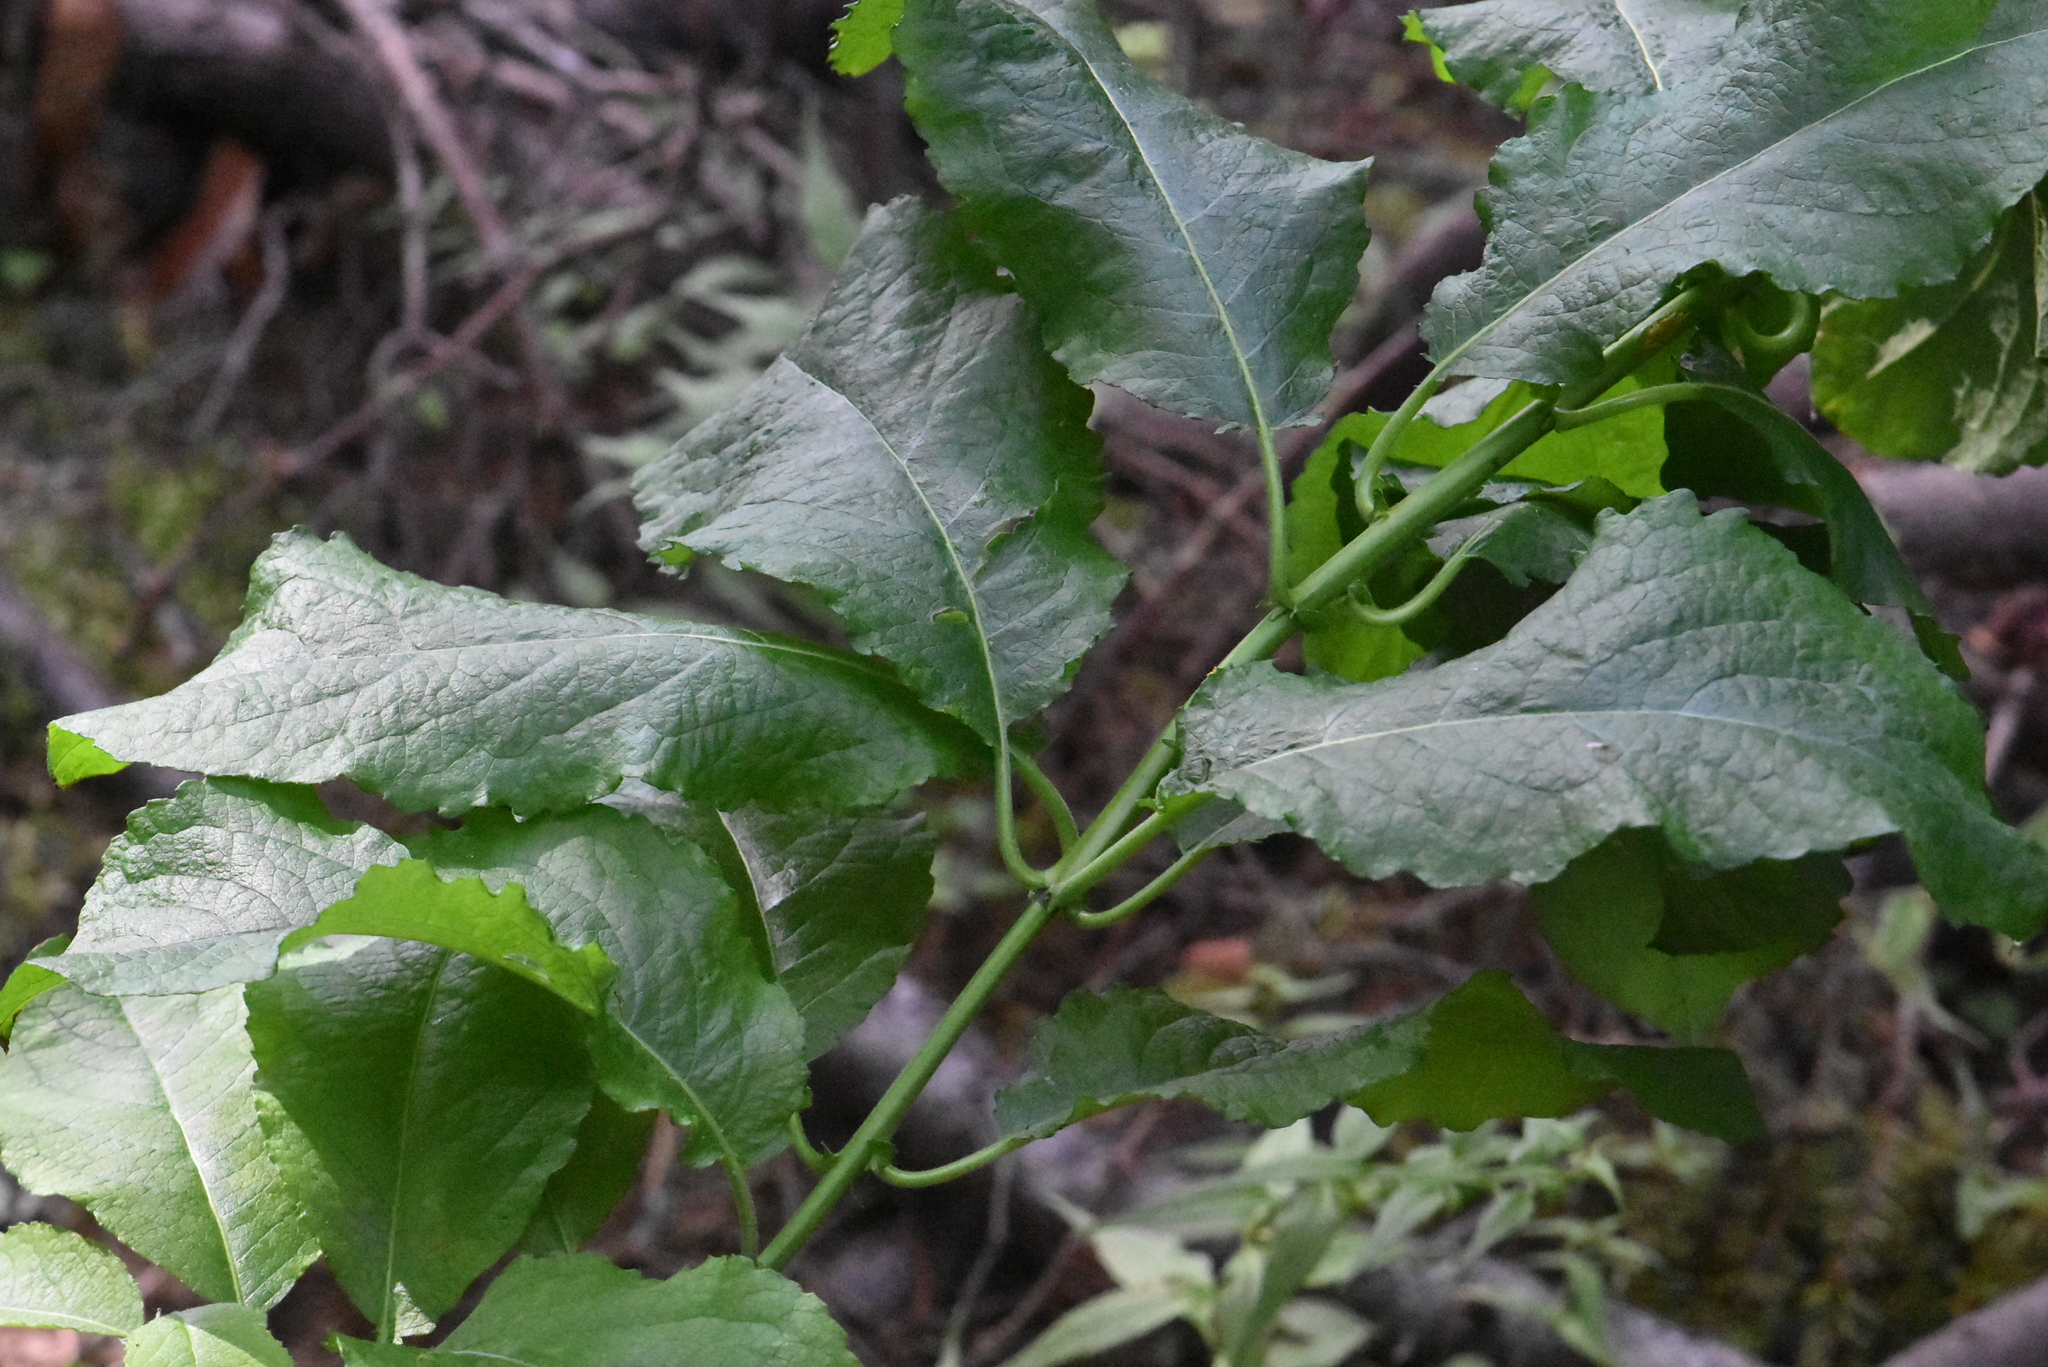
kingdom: Plantae
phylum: Tracheophyta
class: Magnoliopsida
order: Malpighiales
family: Salicaceae
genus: Salix
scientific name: Salix caprea
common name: Goat willow
